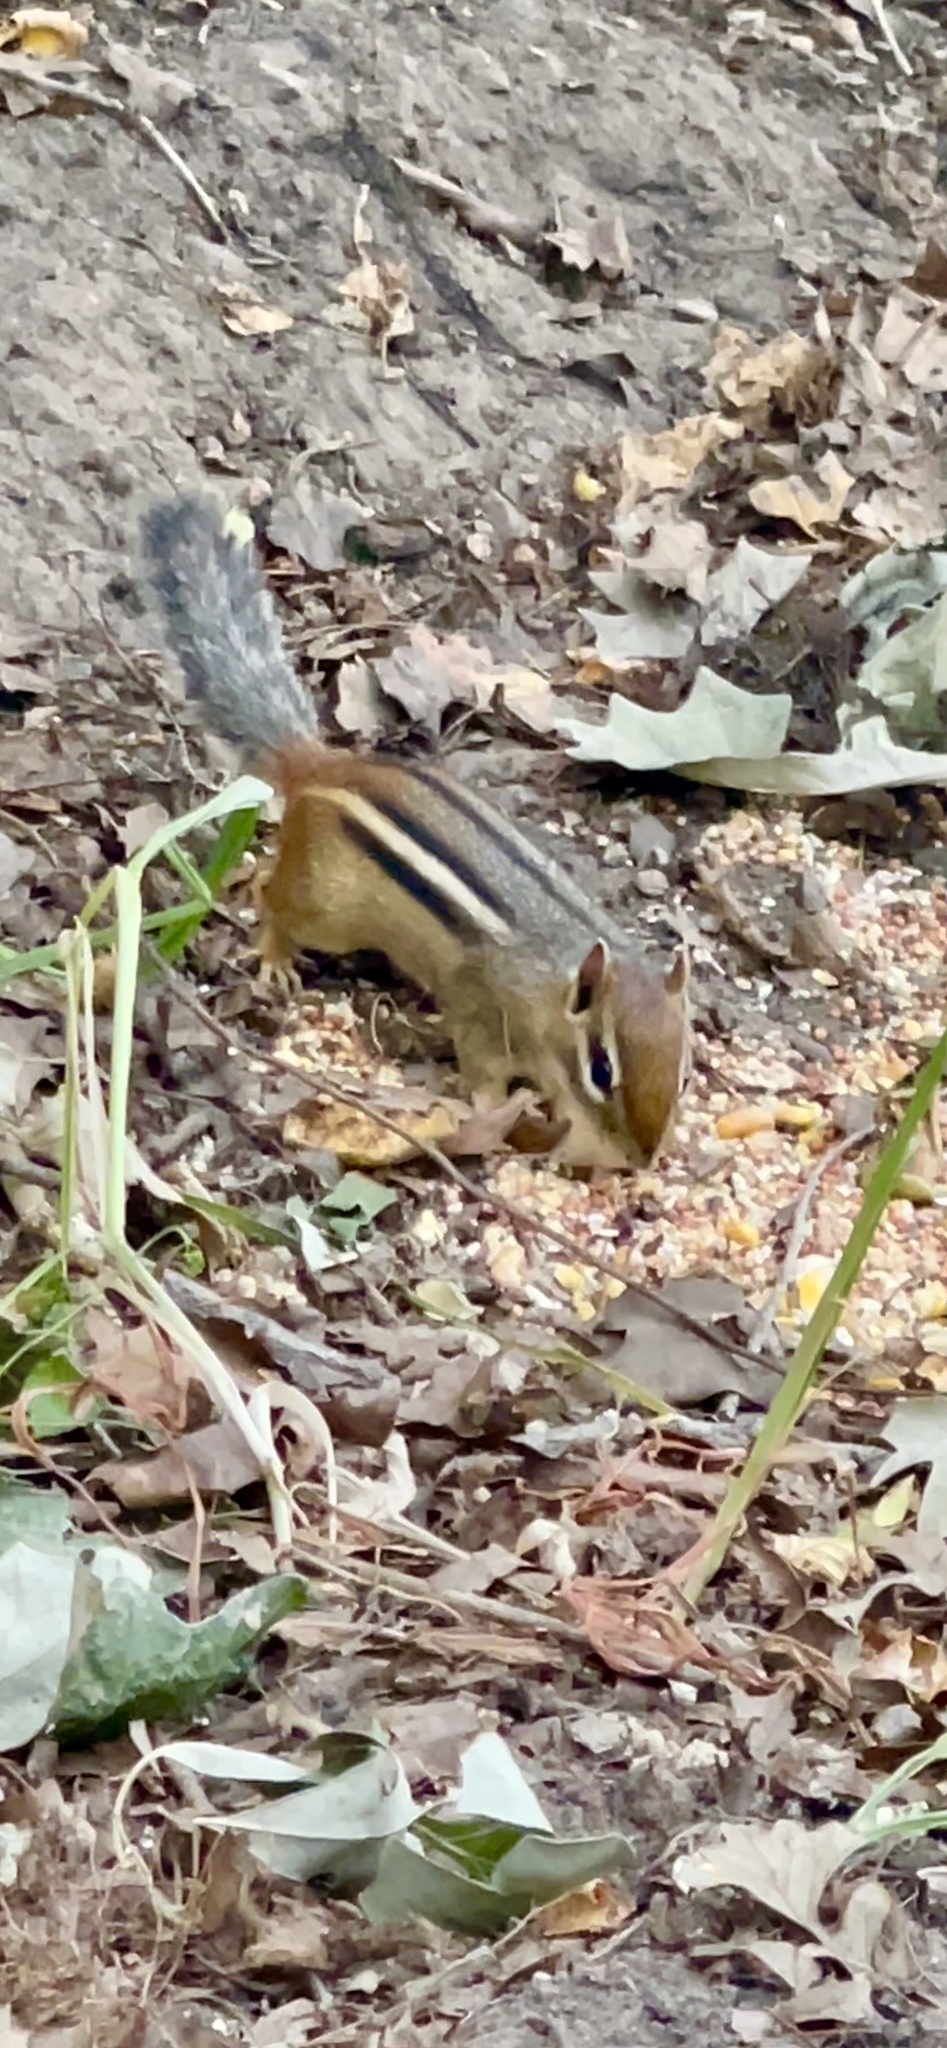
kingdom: Animalia
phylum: Chordata
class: Mammalia
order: Rodentia
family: Sciuridae
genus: Tamias
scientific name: Tamias striatus
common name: Eastern chipmunk
